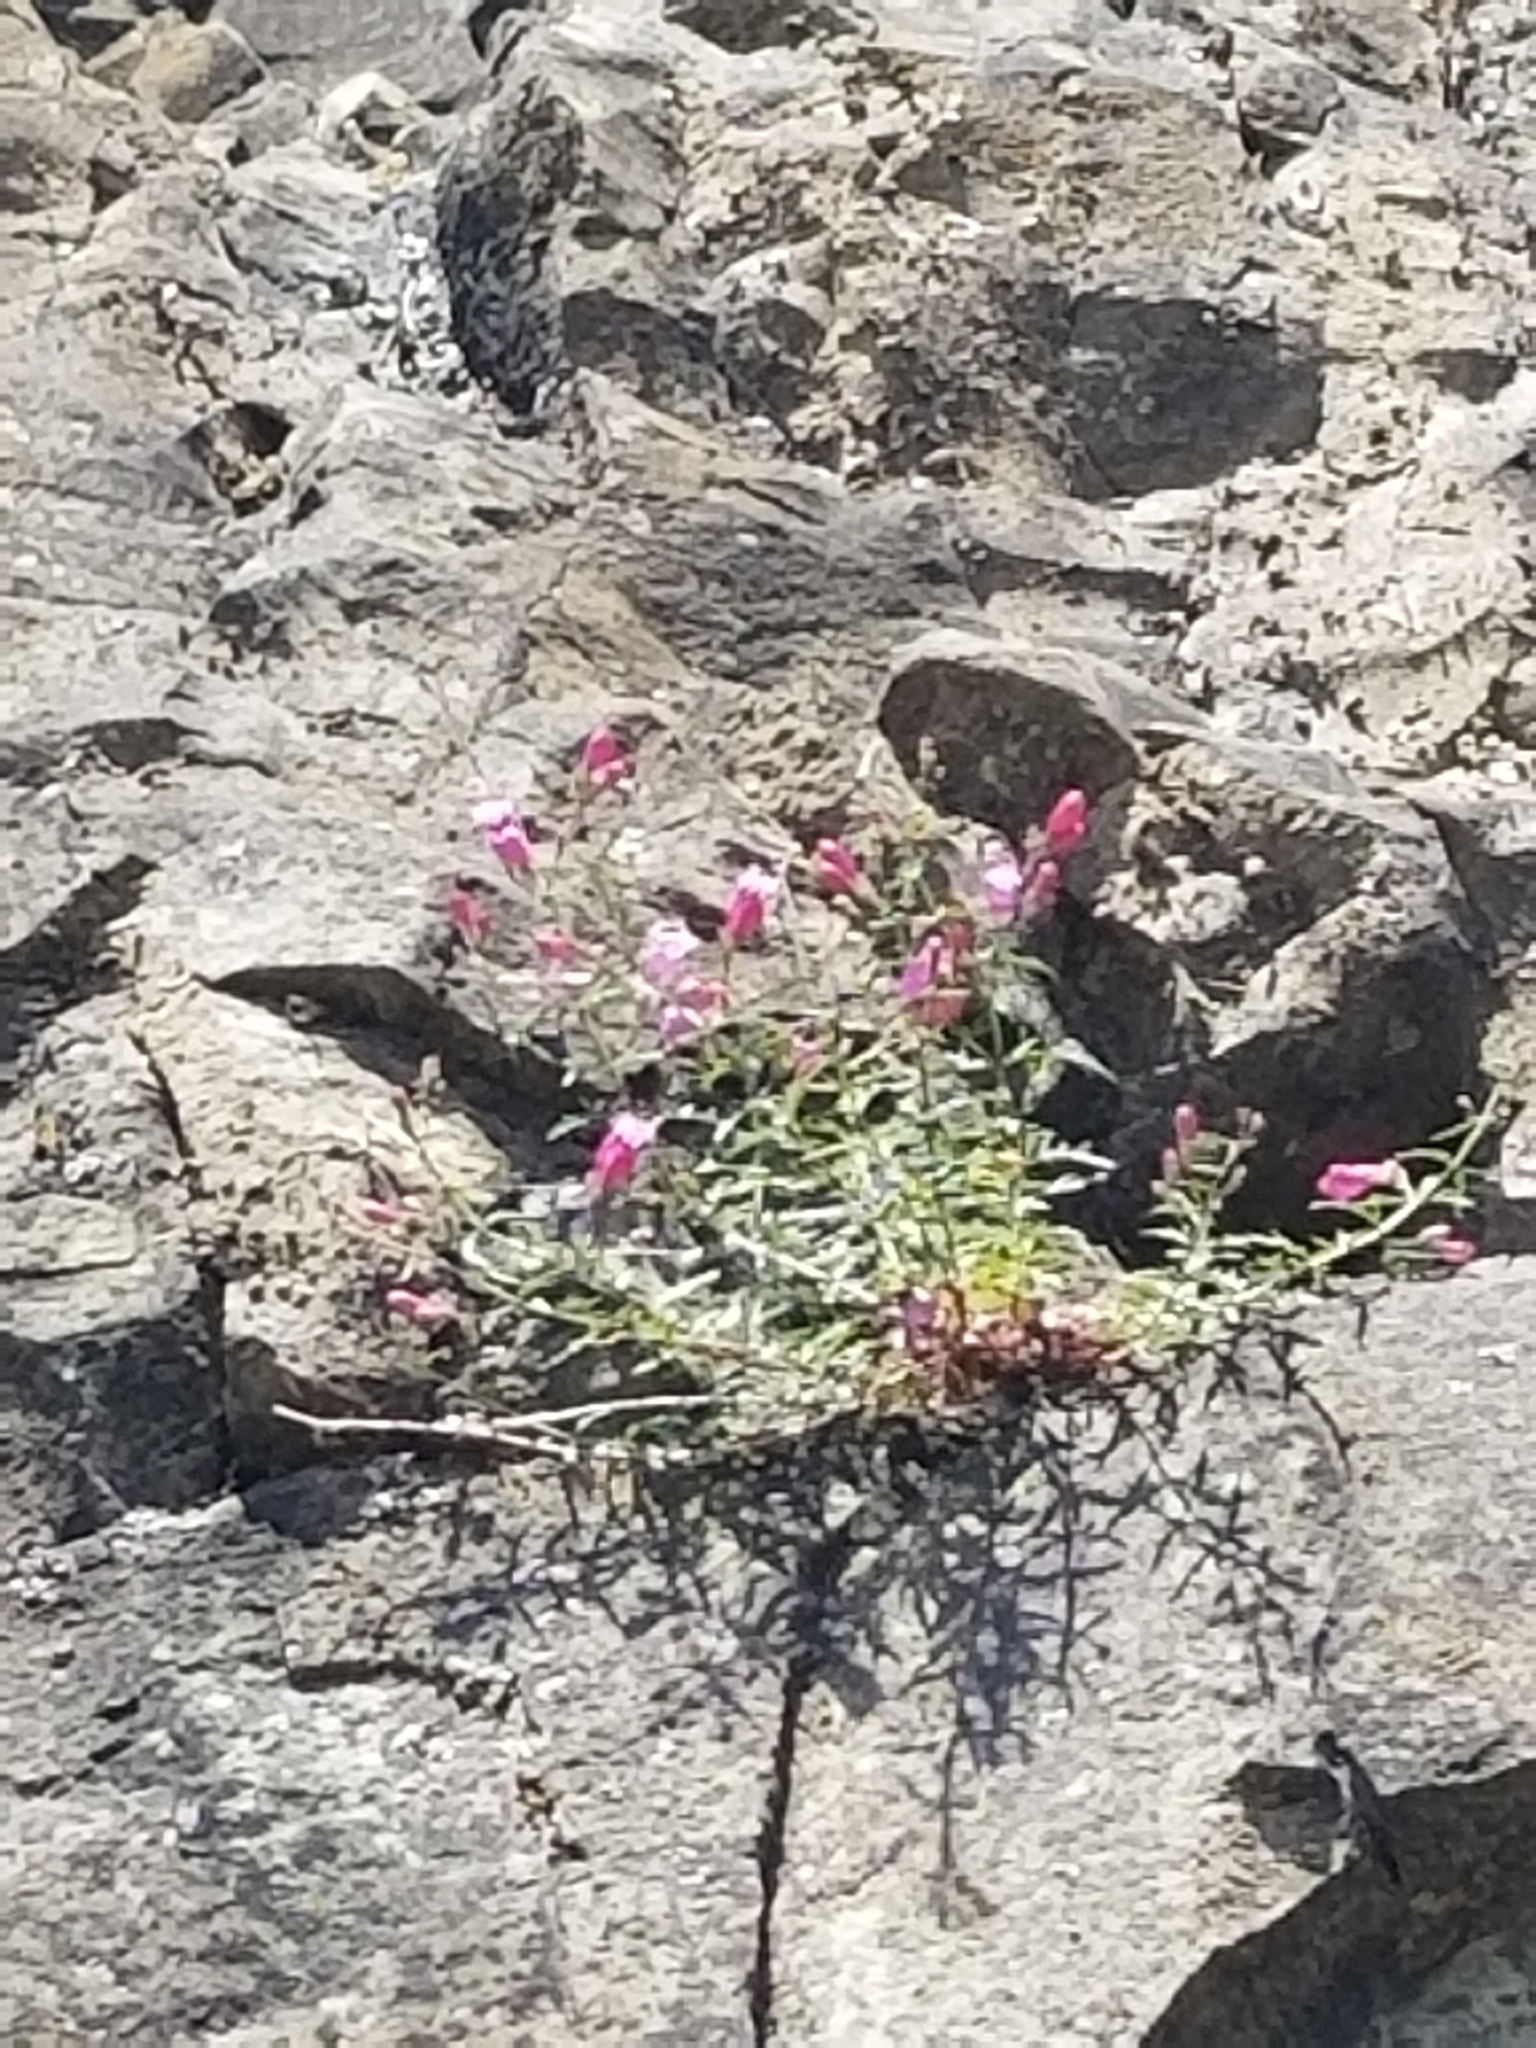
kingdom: Plantae
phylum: Tracheophyta
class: Magnoliopsida
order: Lamiales
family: Plantaginaceae
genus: Penstemon
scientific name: Penstemon richardsonii
